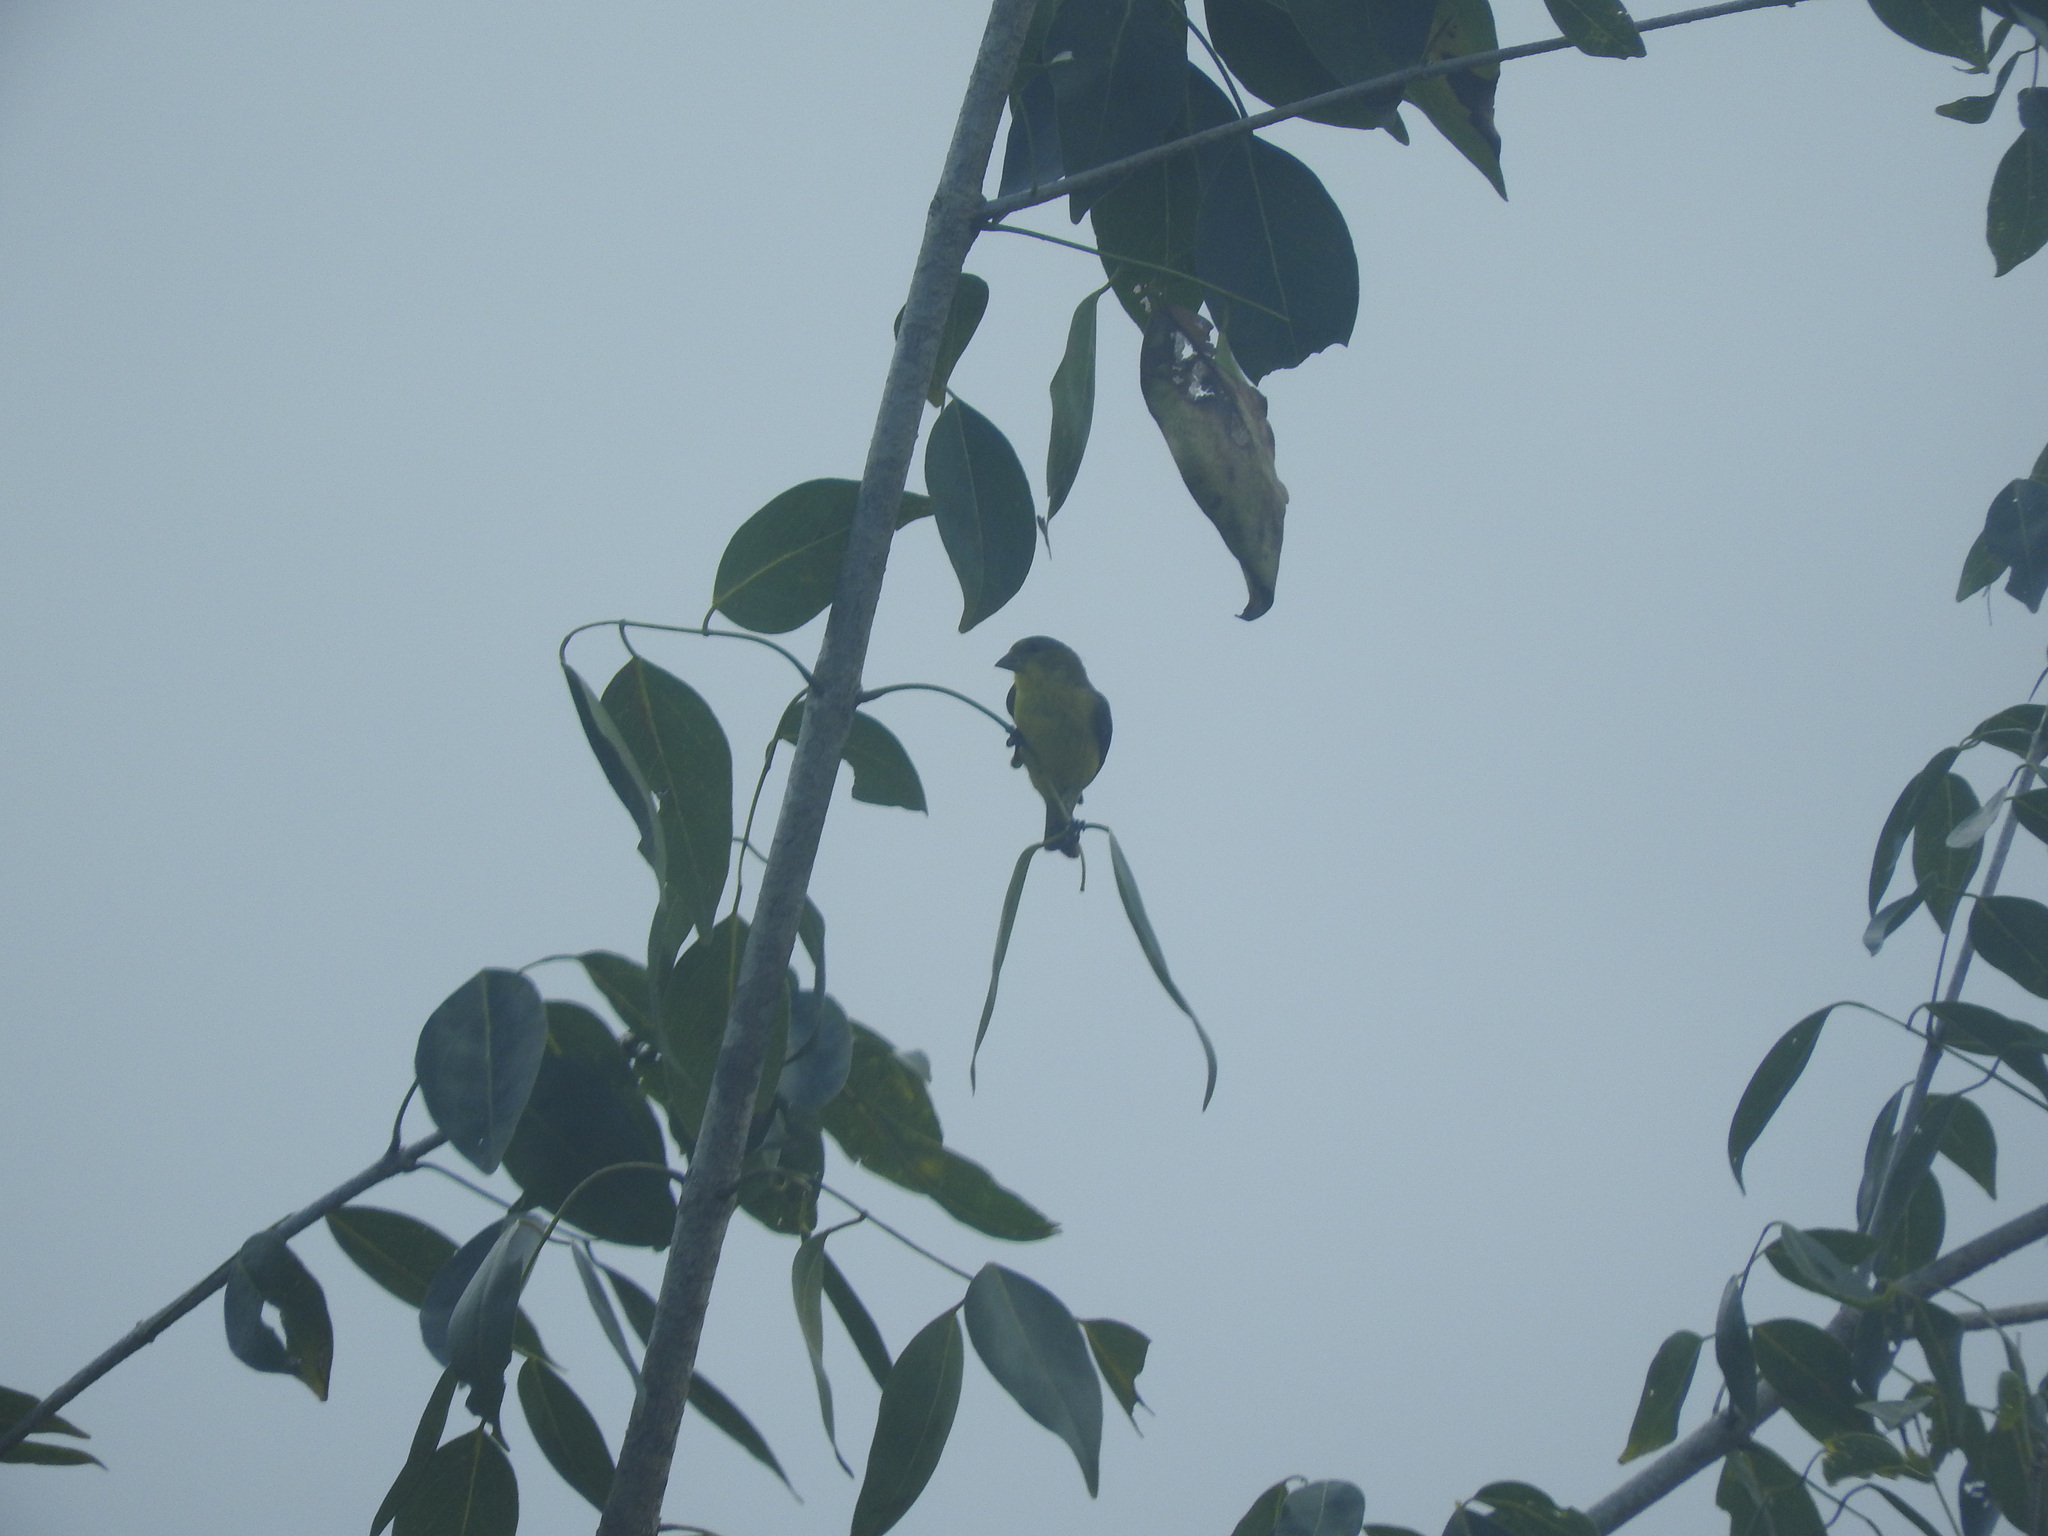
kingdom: Animalia
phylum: Chordata
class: Aves
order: Passeriformes
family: Fringillidae
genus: Spinus
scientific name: Spinus psaltria
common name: Lesser goldfinch
